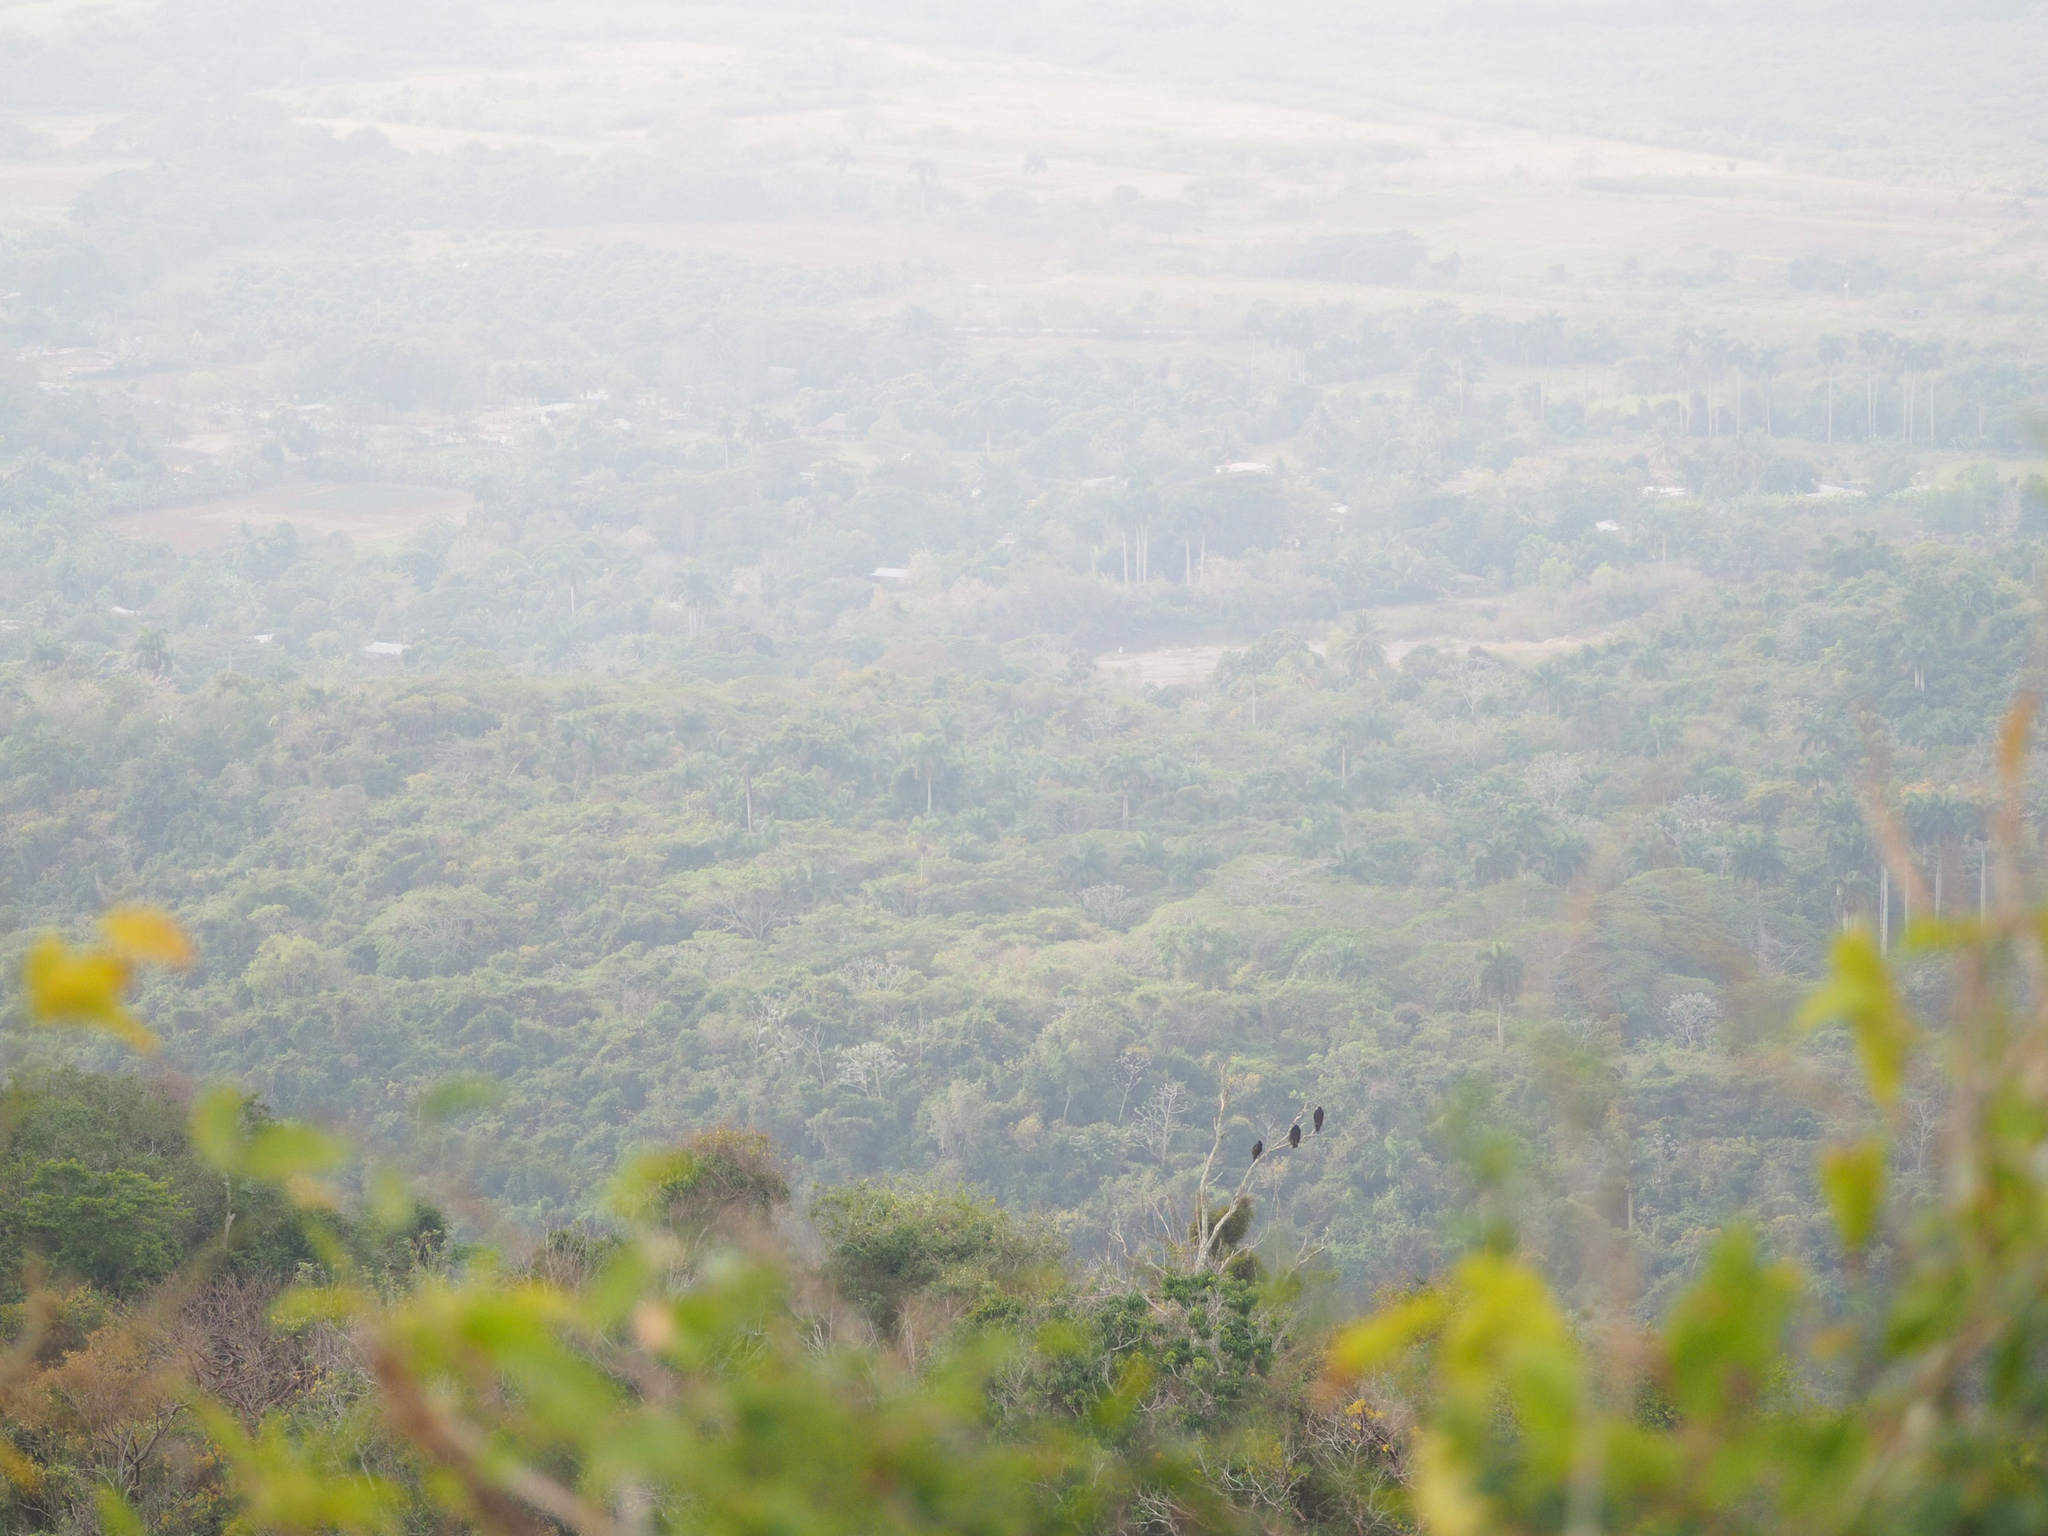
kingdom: Animalia
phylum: Chordata
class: Aves
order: Accipitriformes
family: Cathartidae
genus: Cathartes
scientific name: Cathartes aura
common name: Turkey vulture
